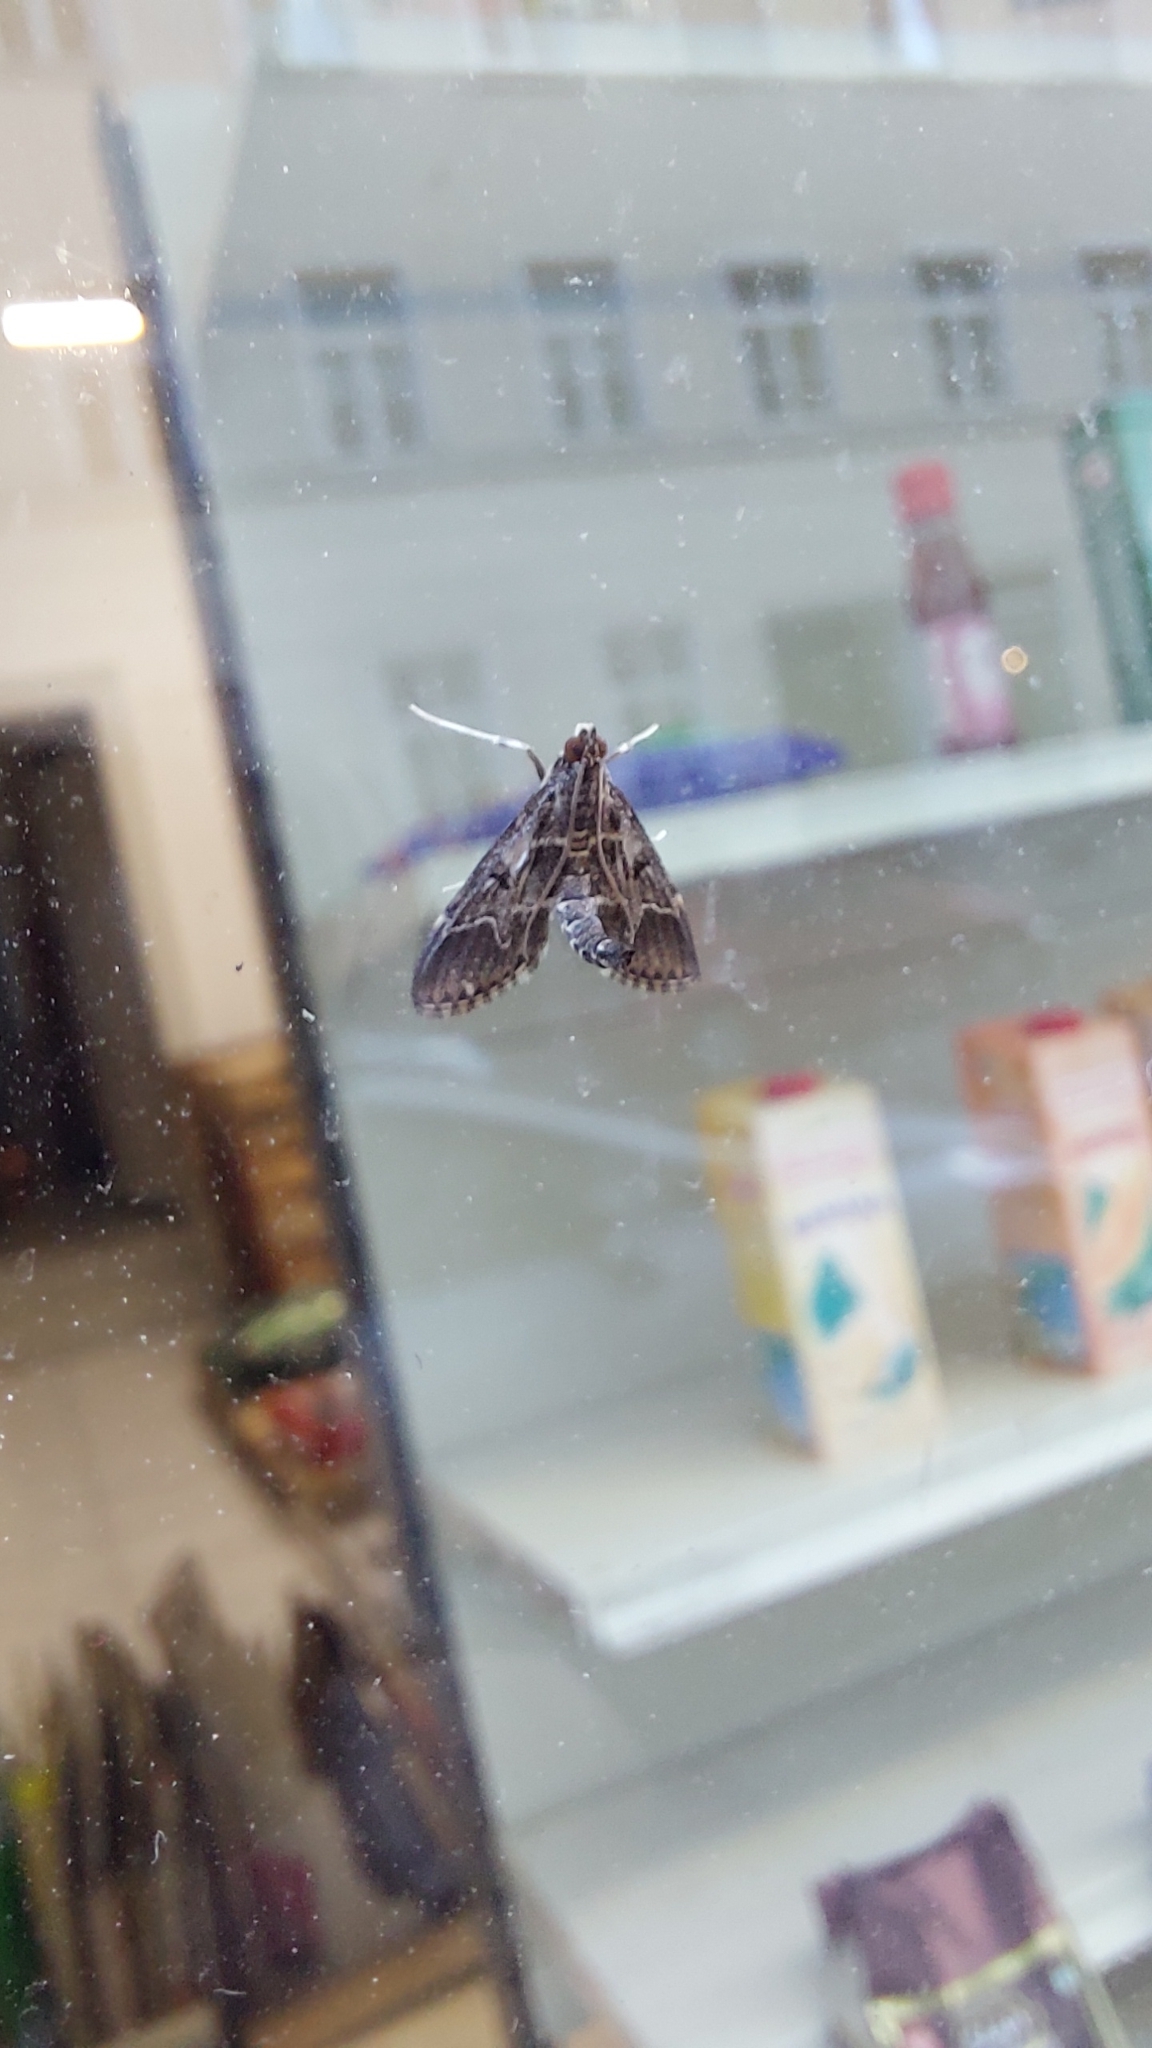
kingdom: Animalia
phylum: Arthropoda
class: Insecta
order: Lepidoptera
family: Crambidae
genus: Duponchelia
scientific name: Duponchelia fovealis
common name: Crambid moth
